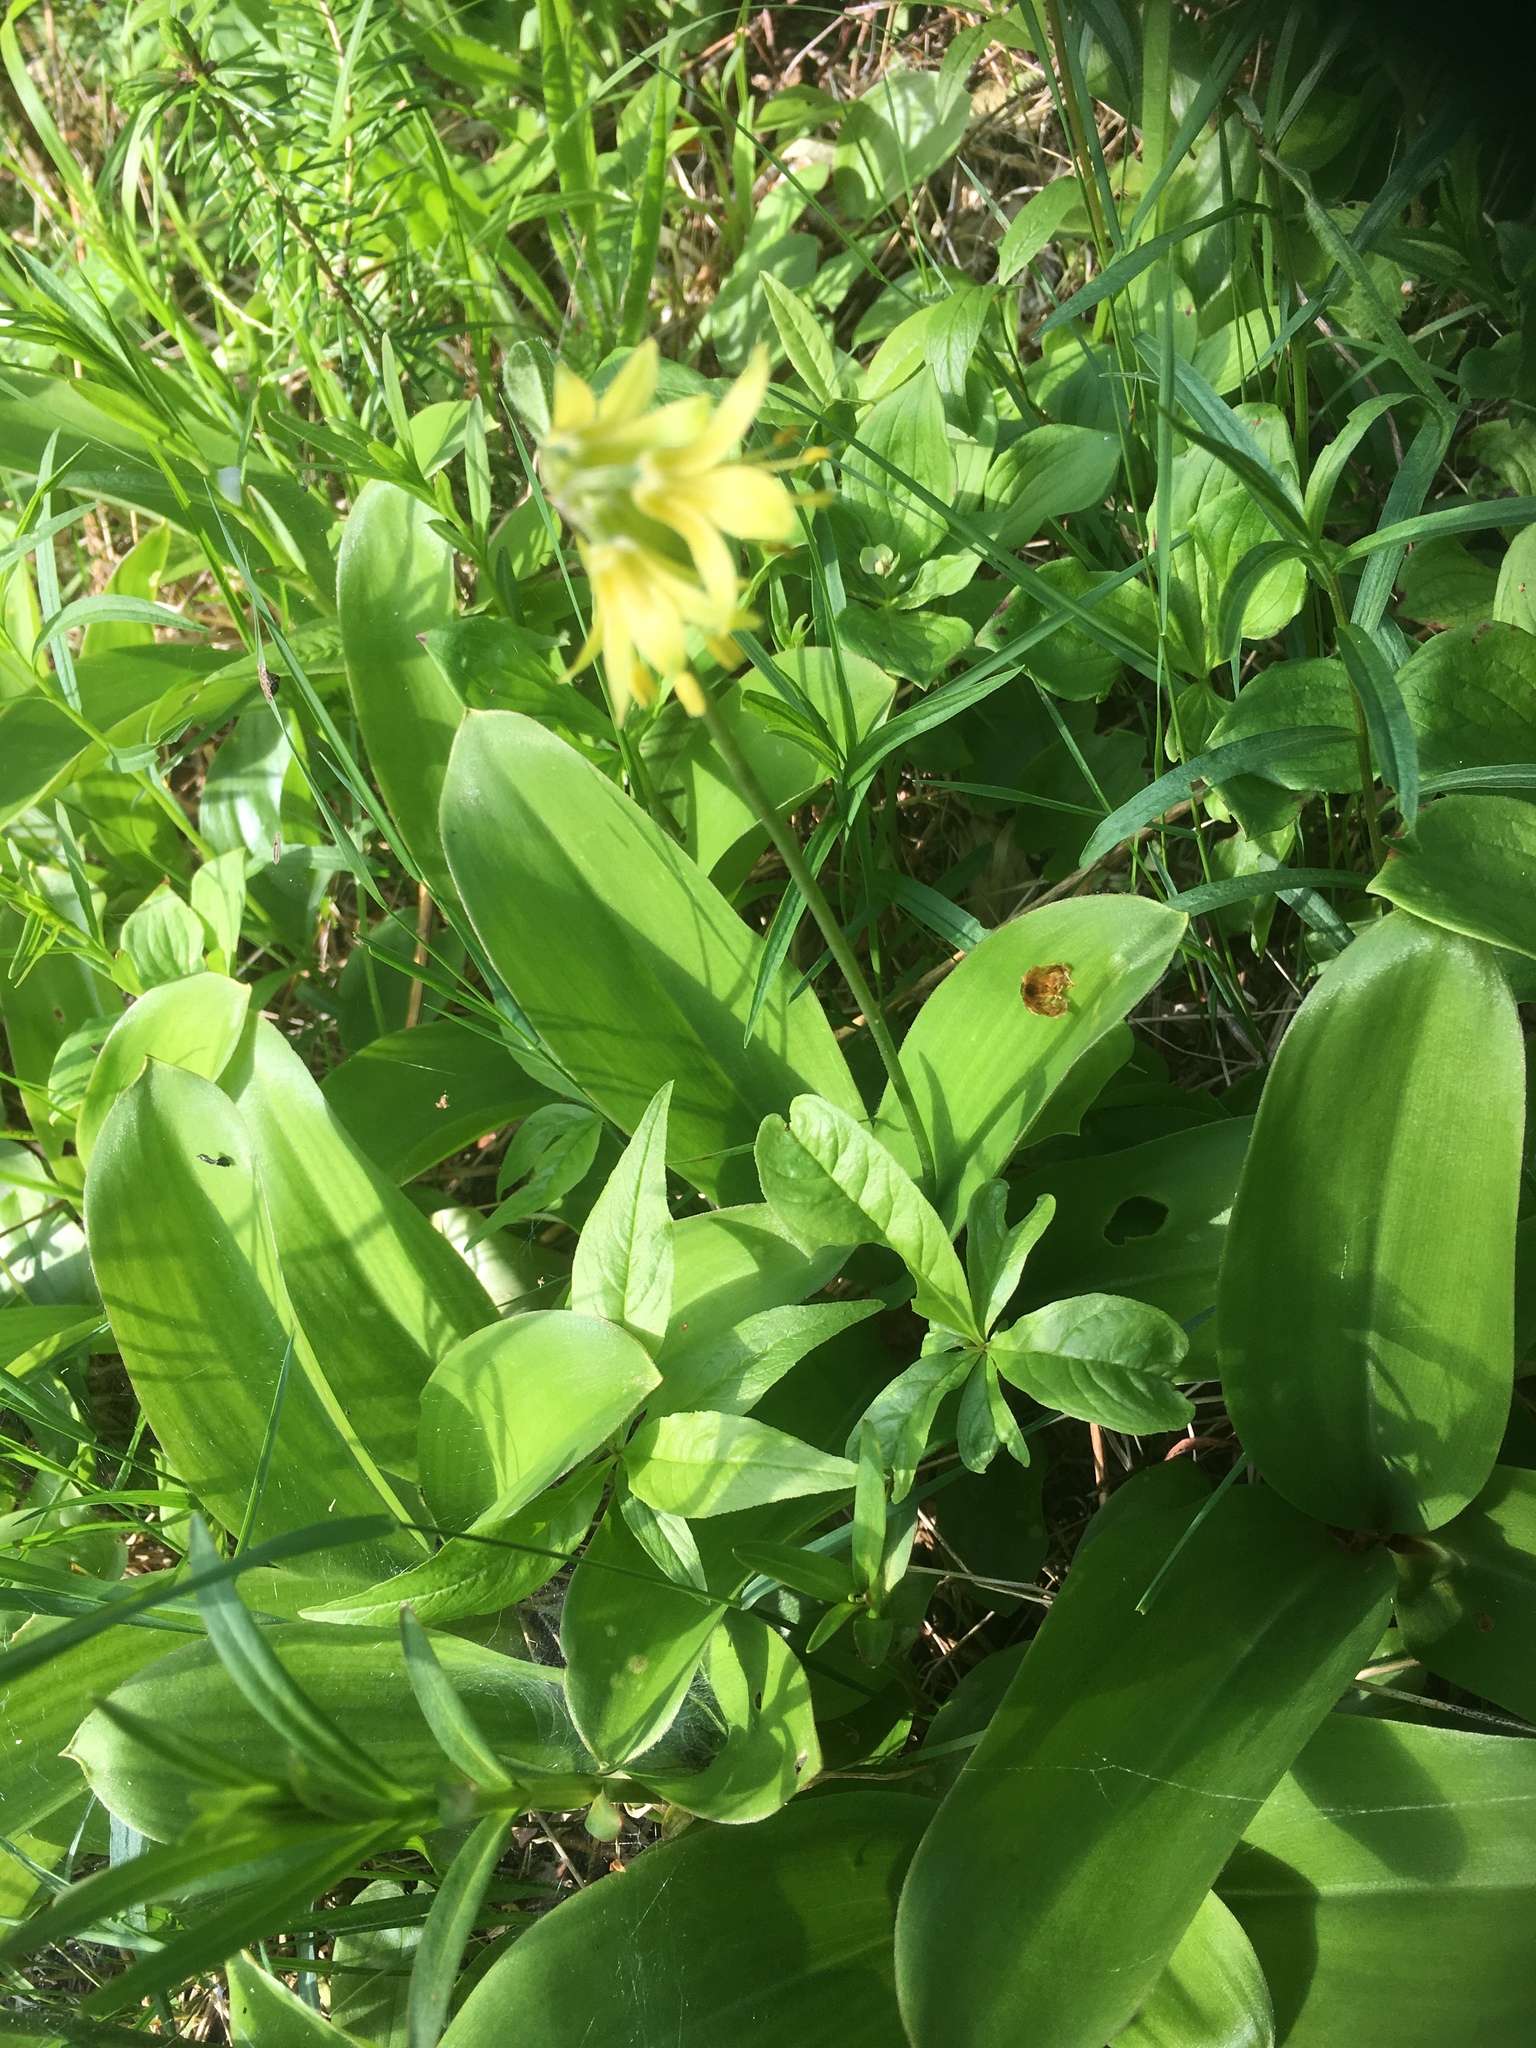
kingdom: Plantae
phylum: Tracheophyta
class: Liliopsida
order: Liliales
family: Liliaceae
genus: Clintonia
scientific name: Clintonia borealis
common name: Yellow clintonia
